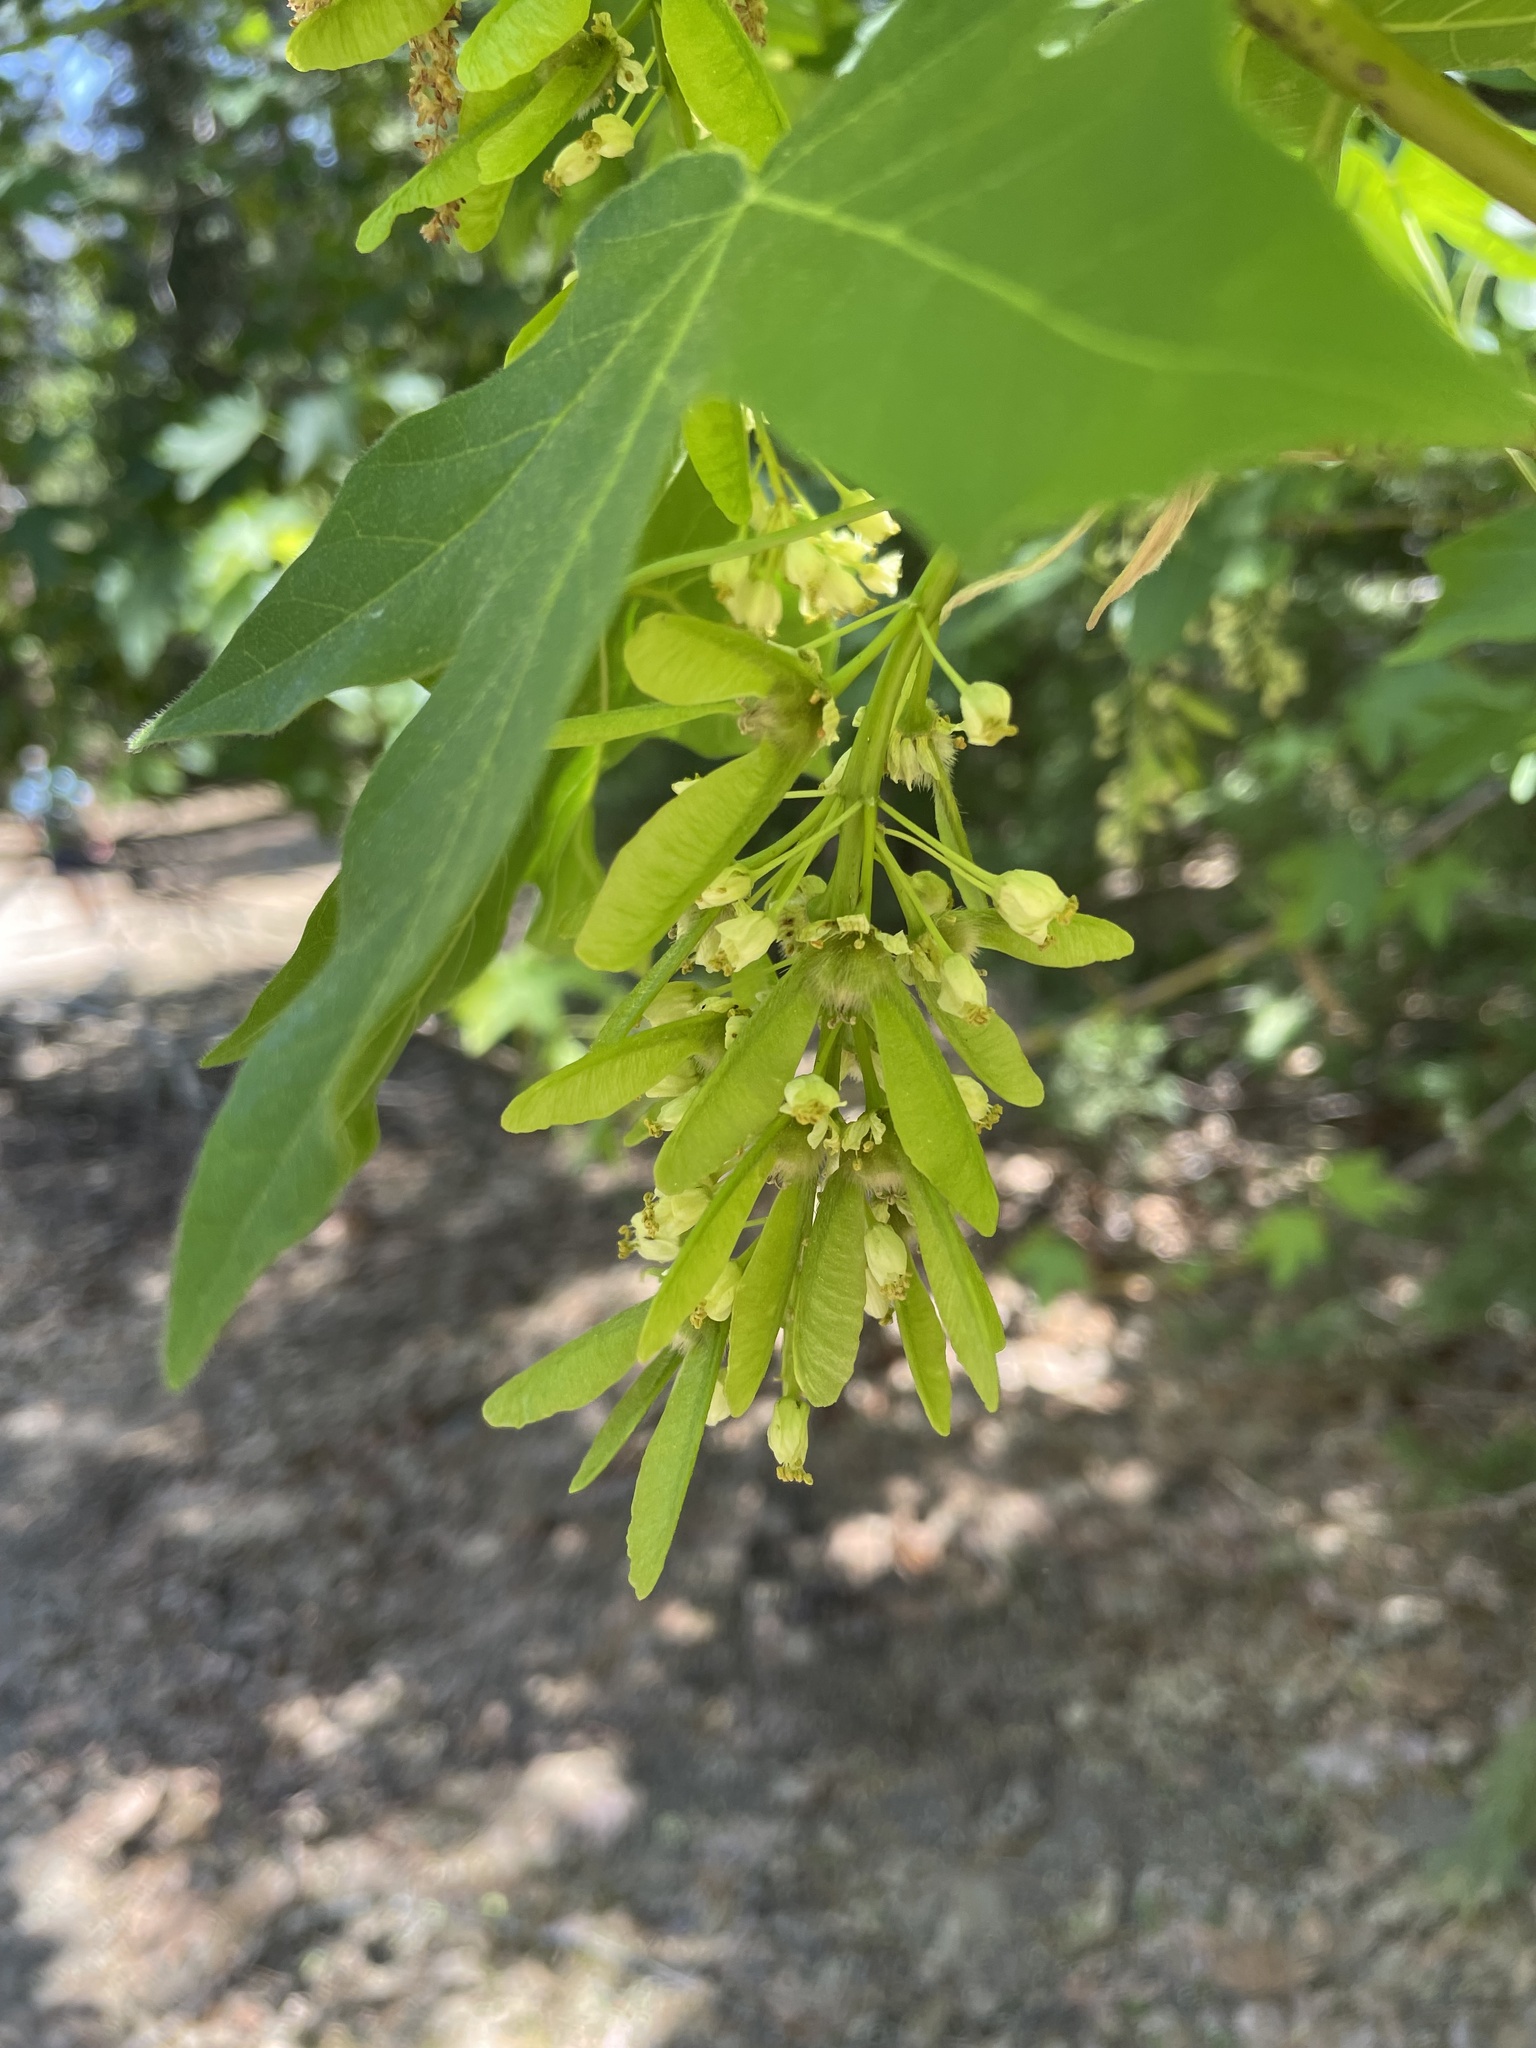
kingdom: Plantae
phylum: Tracheophyta
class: Magnoliopsida
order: Sapindales
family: Sapindaceae
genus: Acer
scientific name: Acer macrophyllum
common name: Oregon maple
